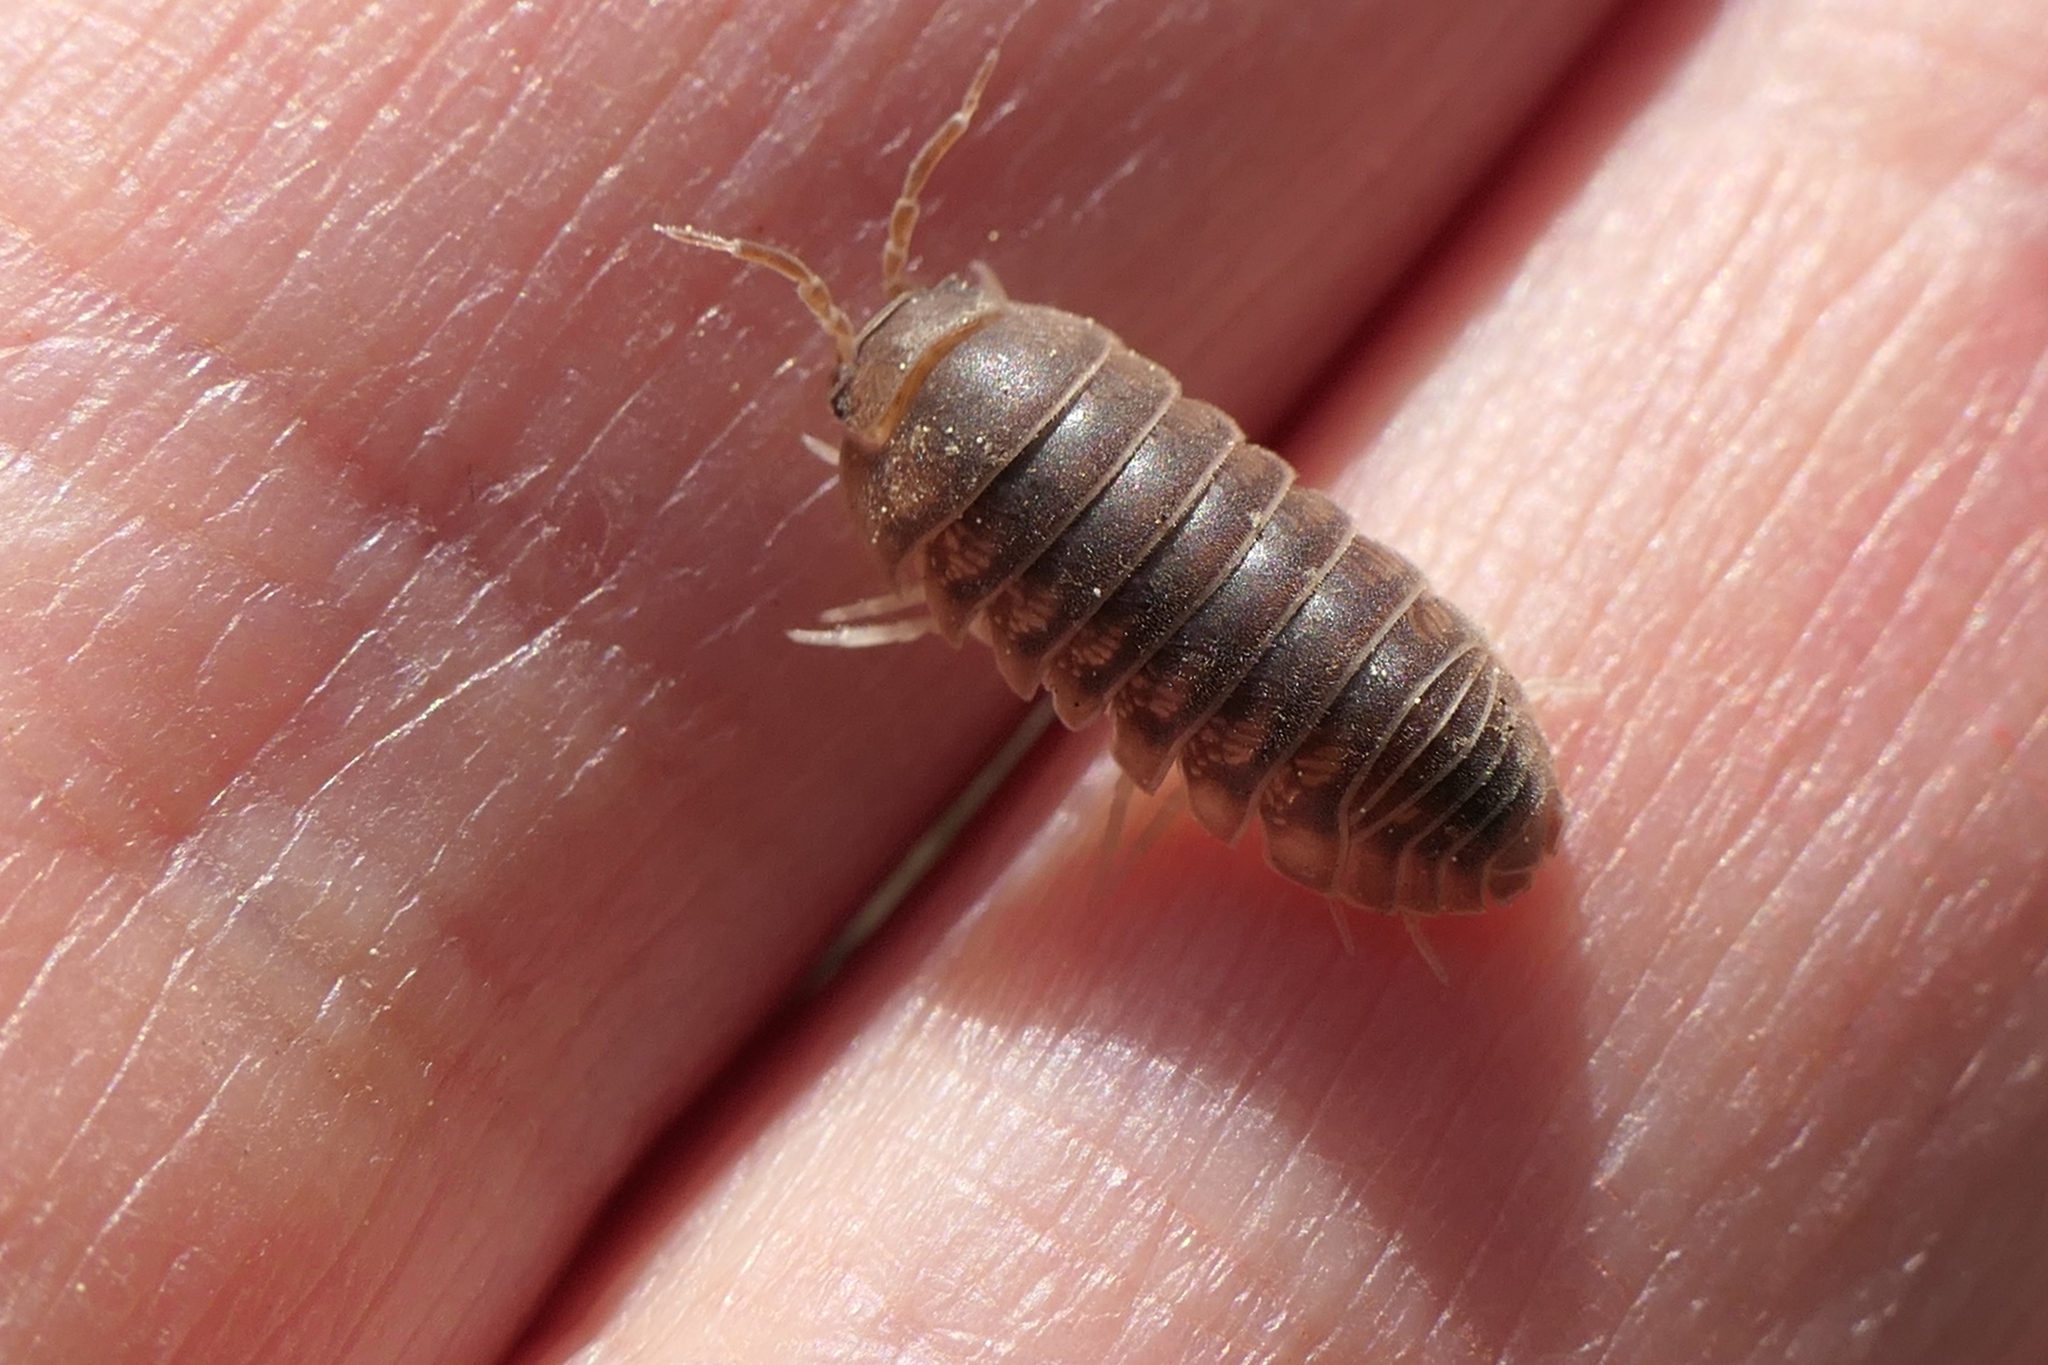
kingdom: Animalia
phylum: Arthropoda
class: Malacostraca
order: Isopoda
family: Armadillidiidae
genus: Eluma
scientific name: Eluma caelata
